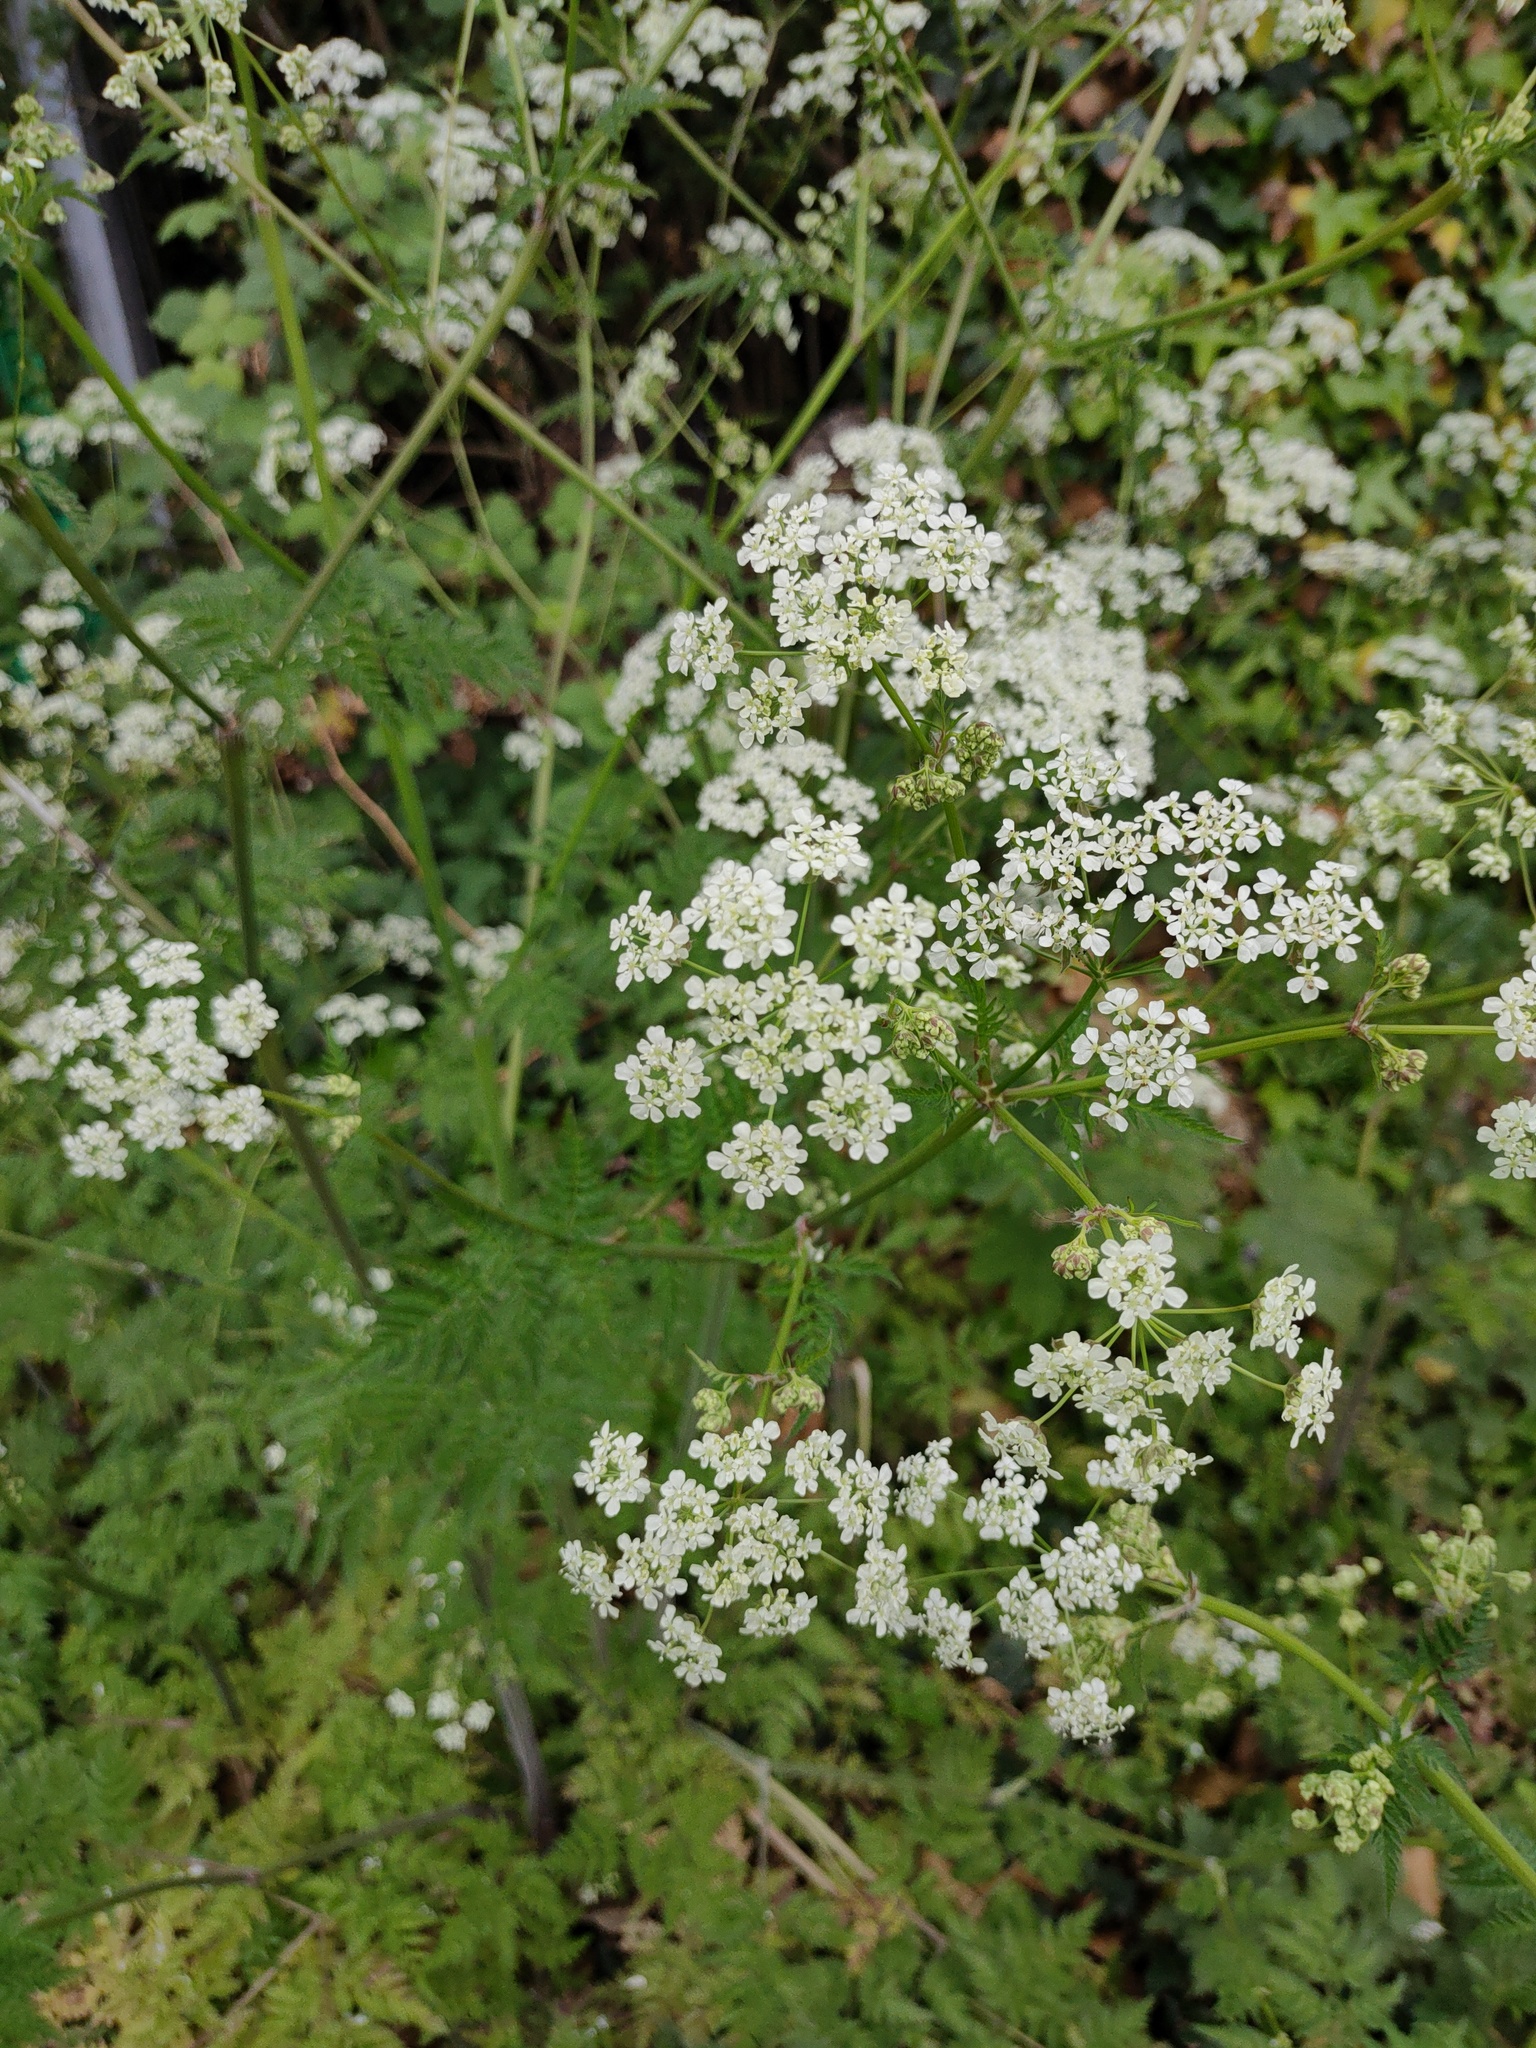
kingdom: Plantae
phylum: Tracheophyta
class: Magnoliopsida
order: Apiales
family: Apiaceae
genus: Anthriscus
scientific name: Anthriscus sylvestris
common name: Cow parsley
